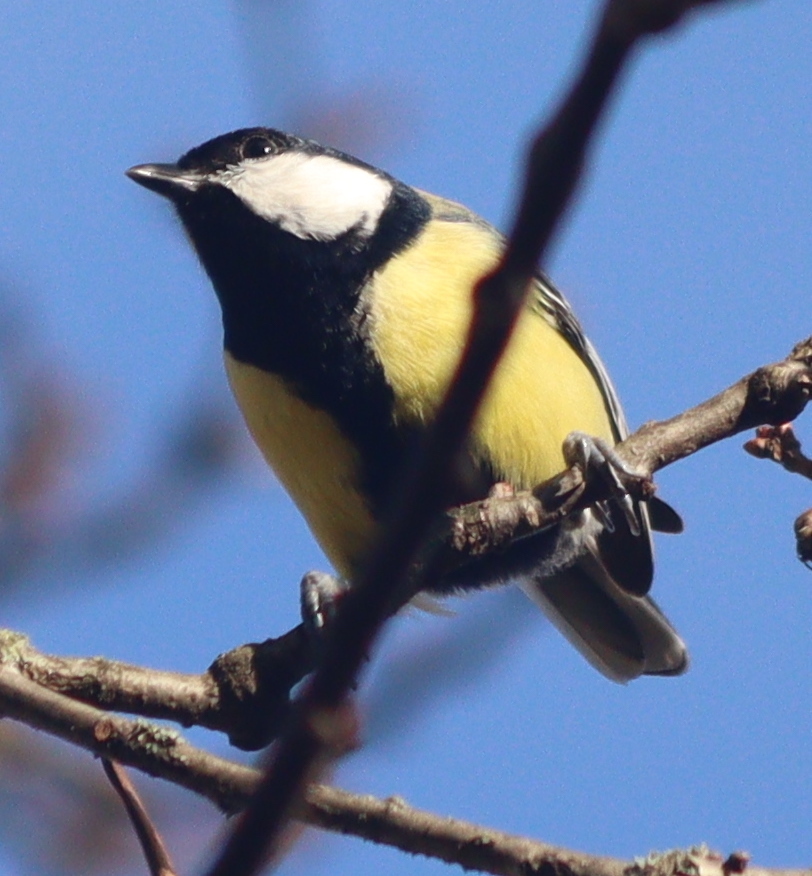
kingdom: Animalia
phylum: Chordata
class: Aves
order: Passeriformes
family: Paridae
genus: Parus
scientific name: Parus major
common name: Great tit
